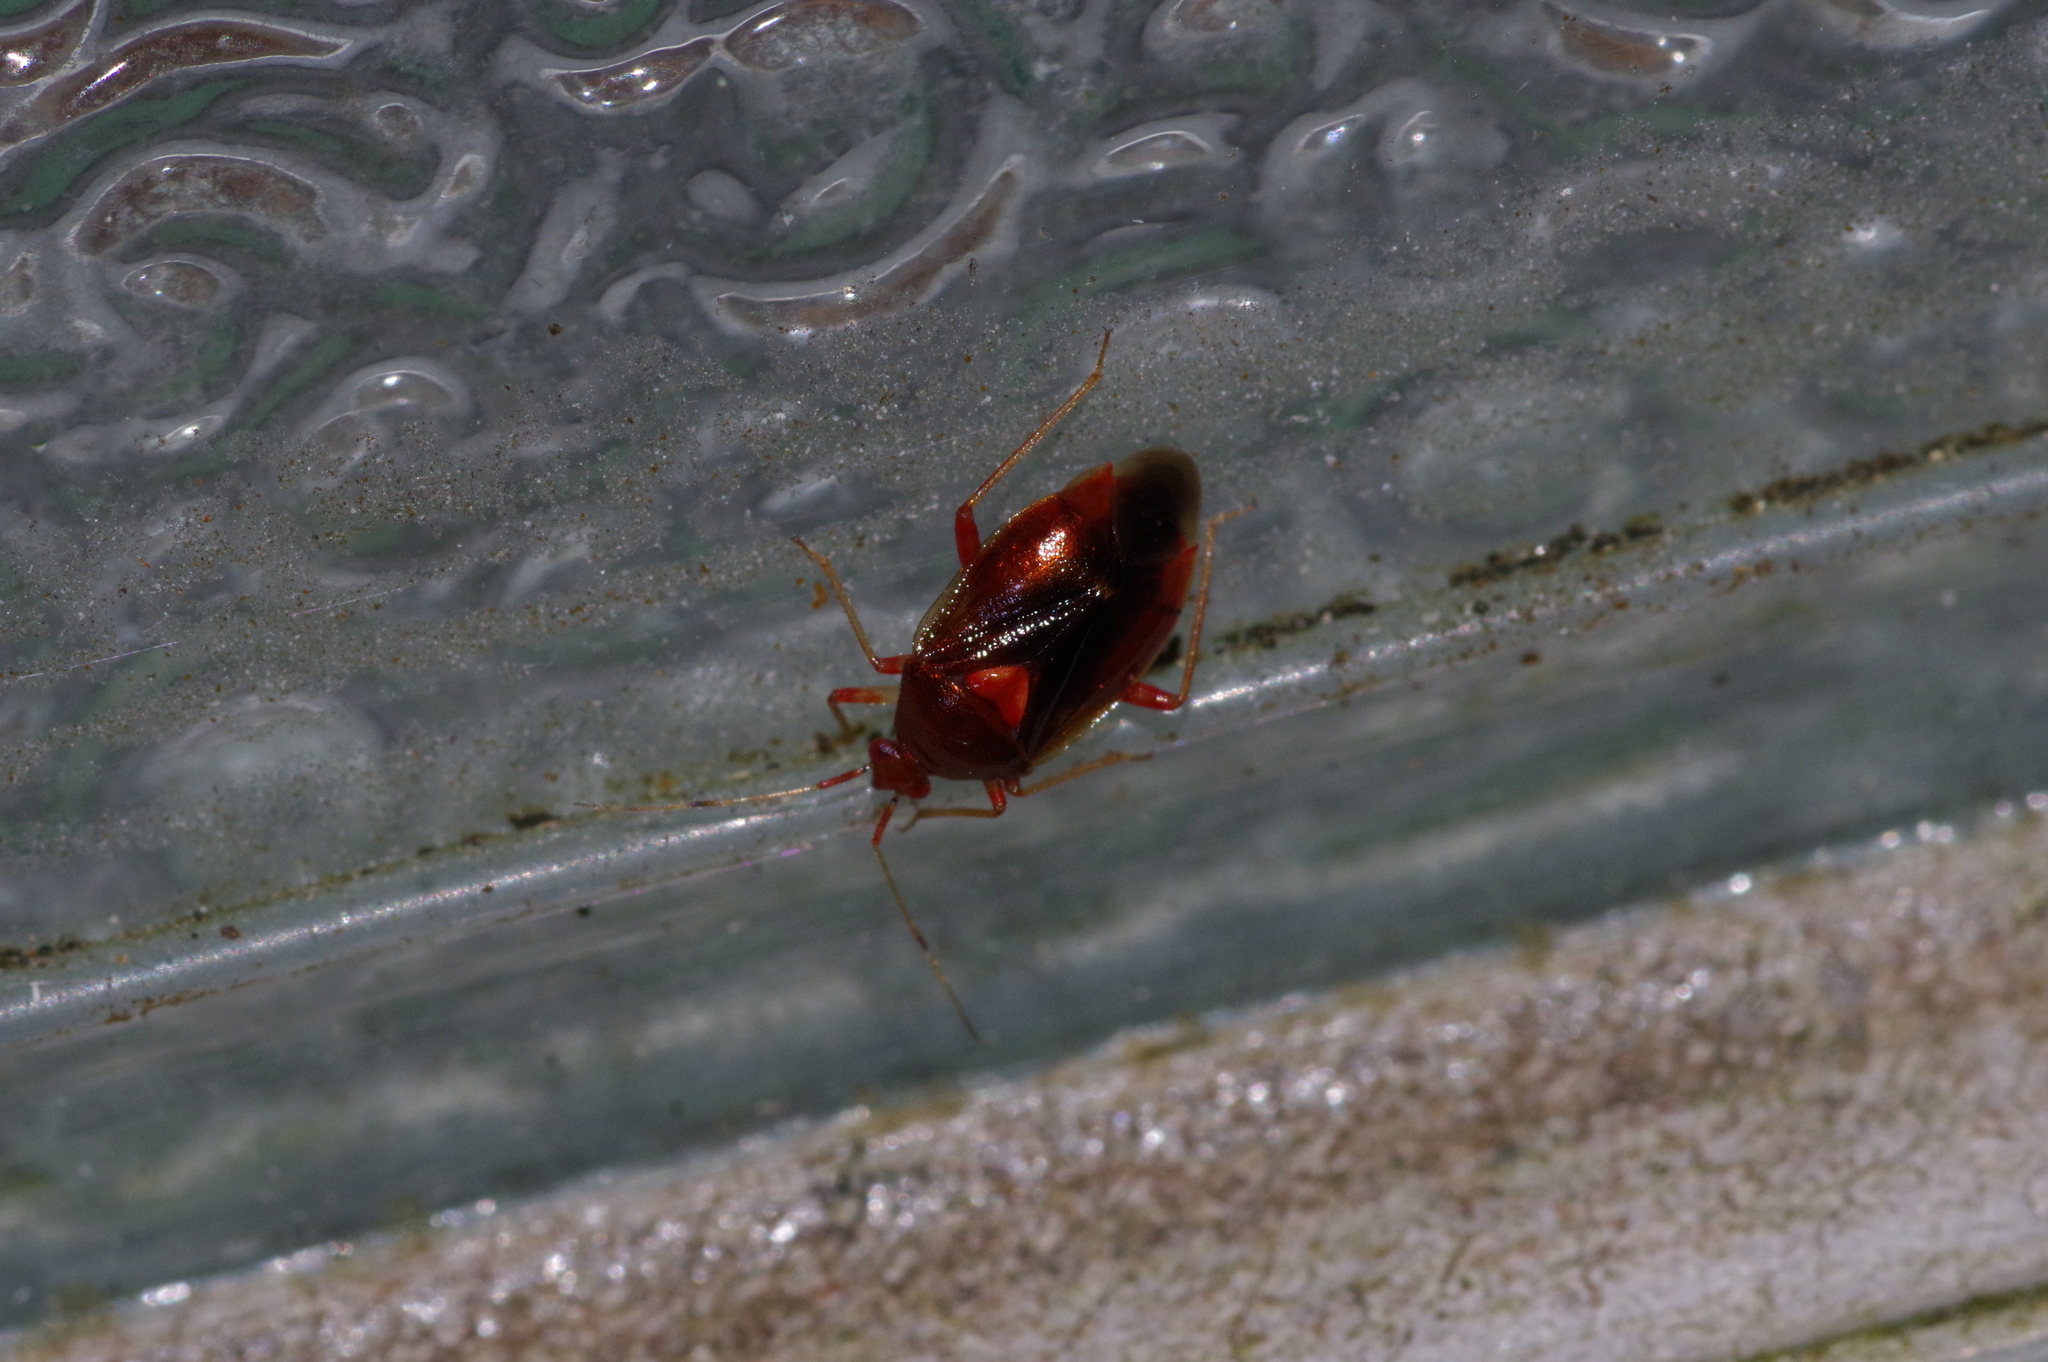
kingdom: Animalia
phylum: Arthropoda
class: Insecta
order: Hemiptera
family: Miridae
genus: Deraeocoris
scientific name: Deraeocoris kimotoi
